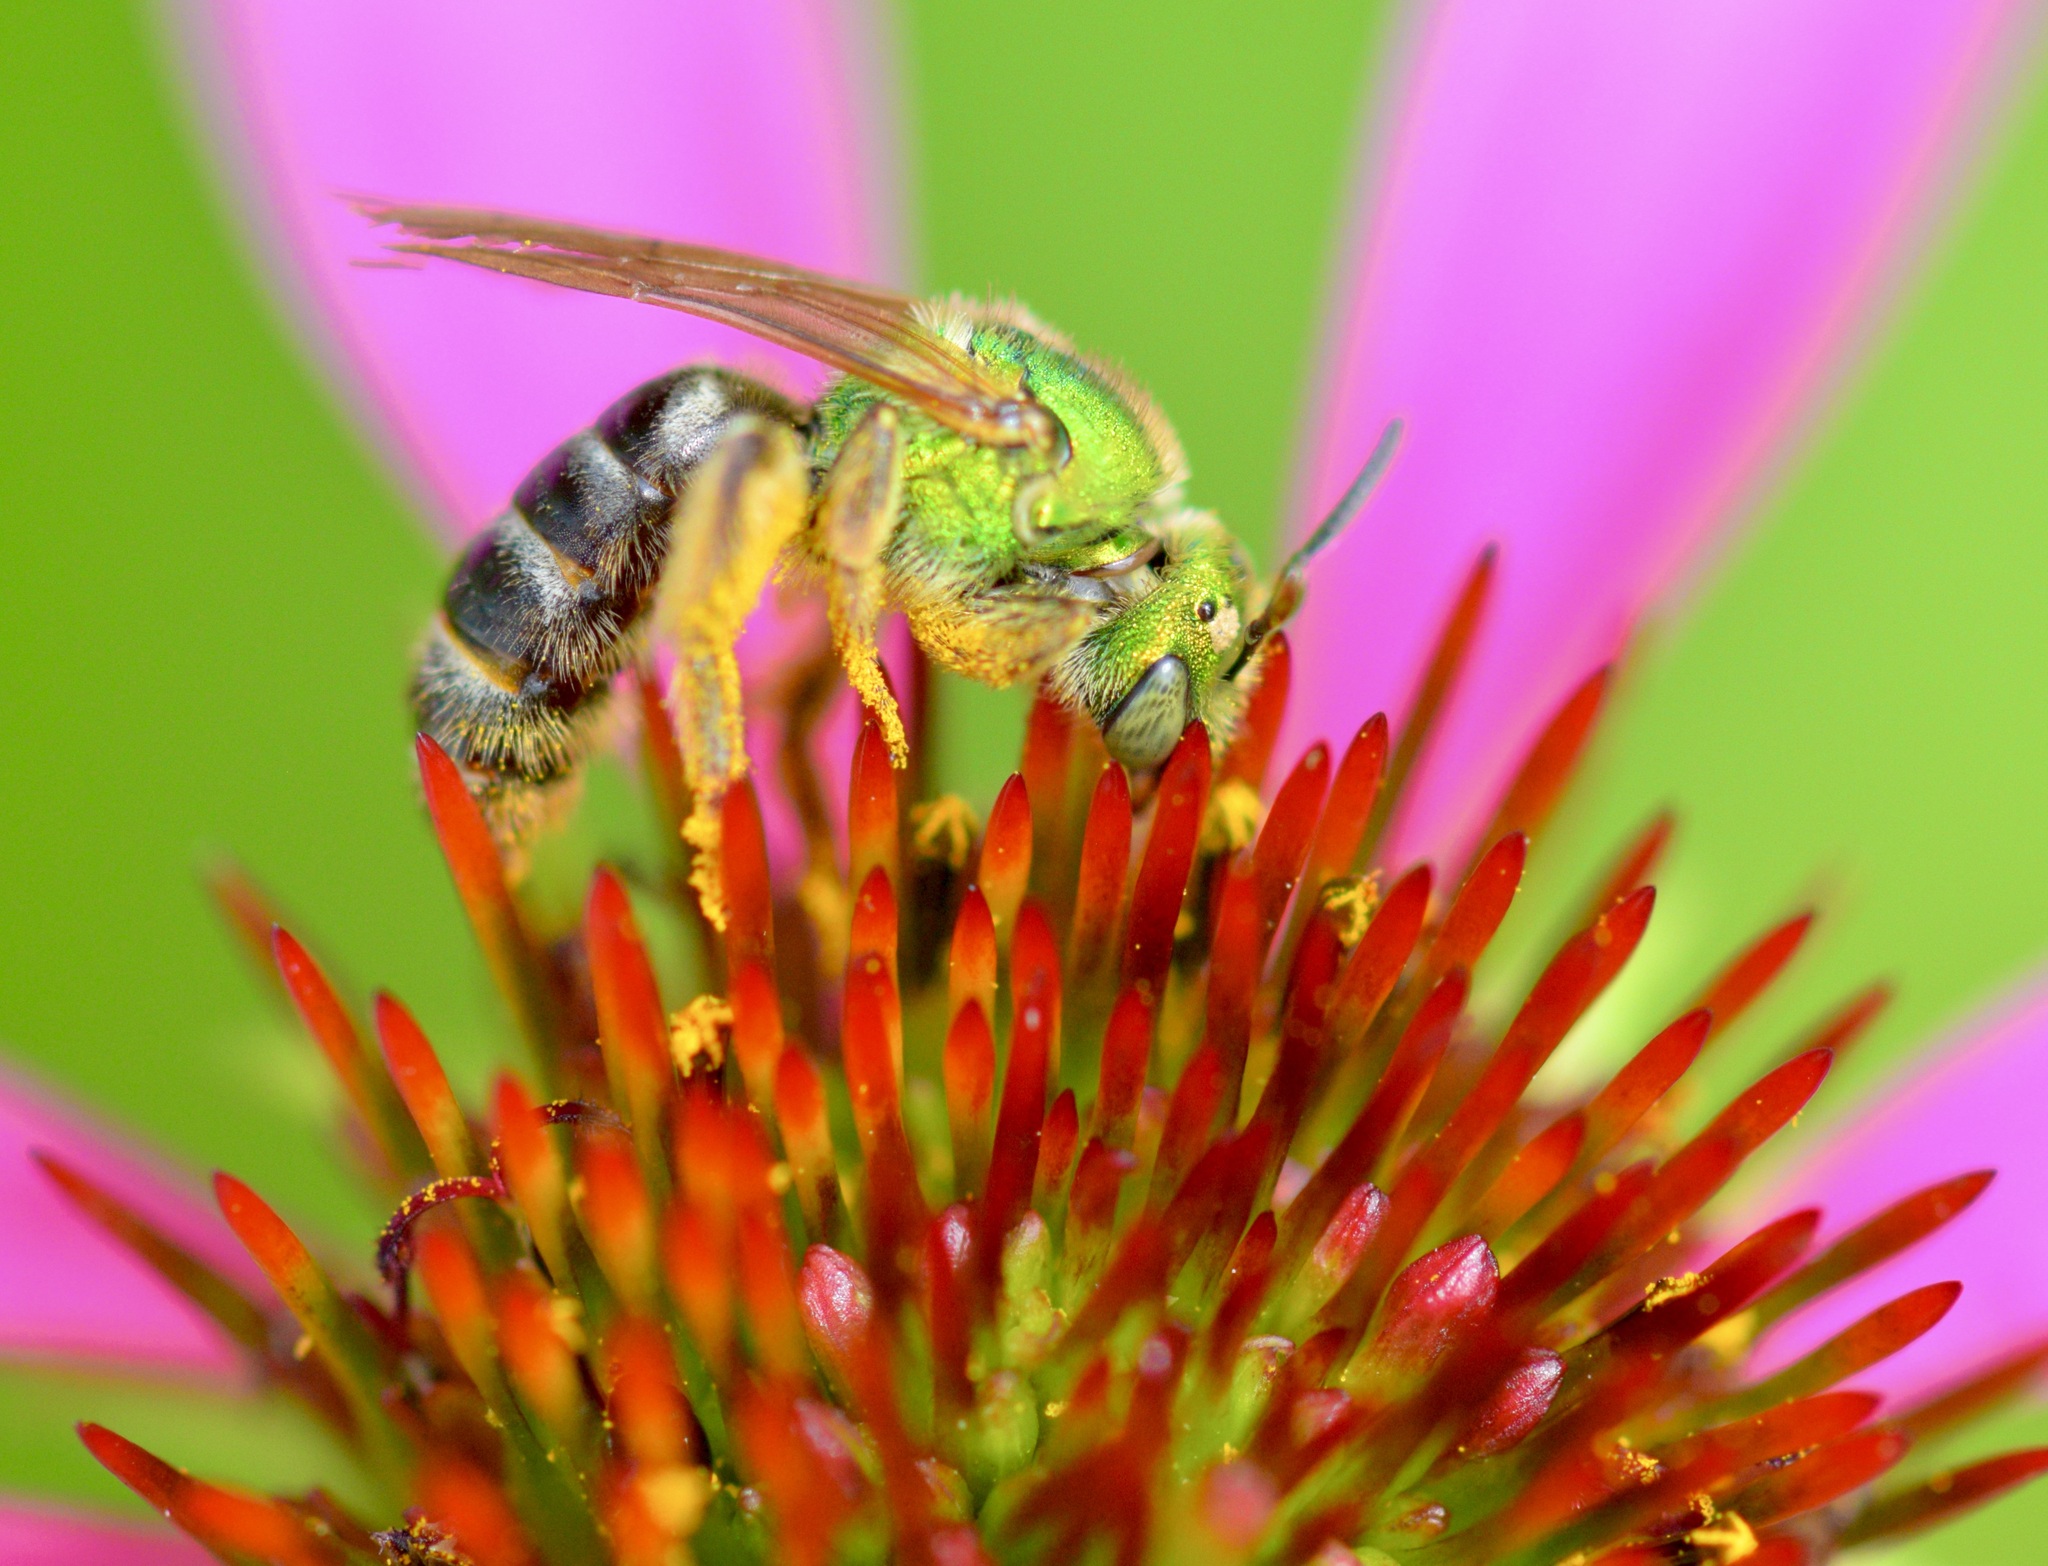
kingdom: Animalia
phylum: Arthropoda
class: Insecta
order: Hymenoptera
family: Halictidae
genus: Agapostemon
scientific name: Agapostemon virescens
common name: Bicolored striped sweat bee
